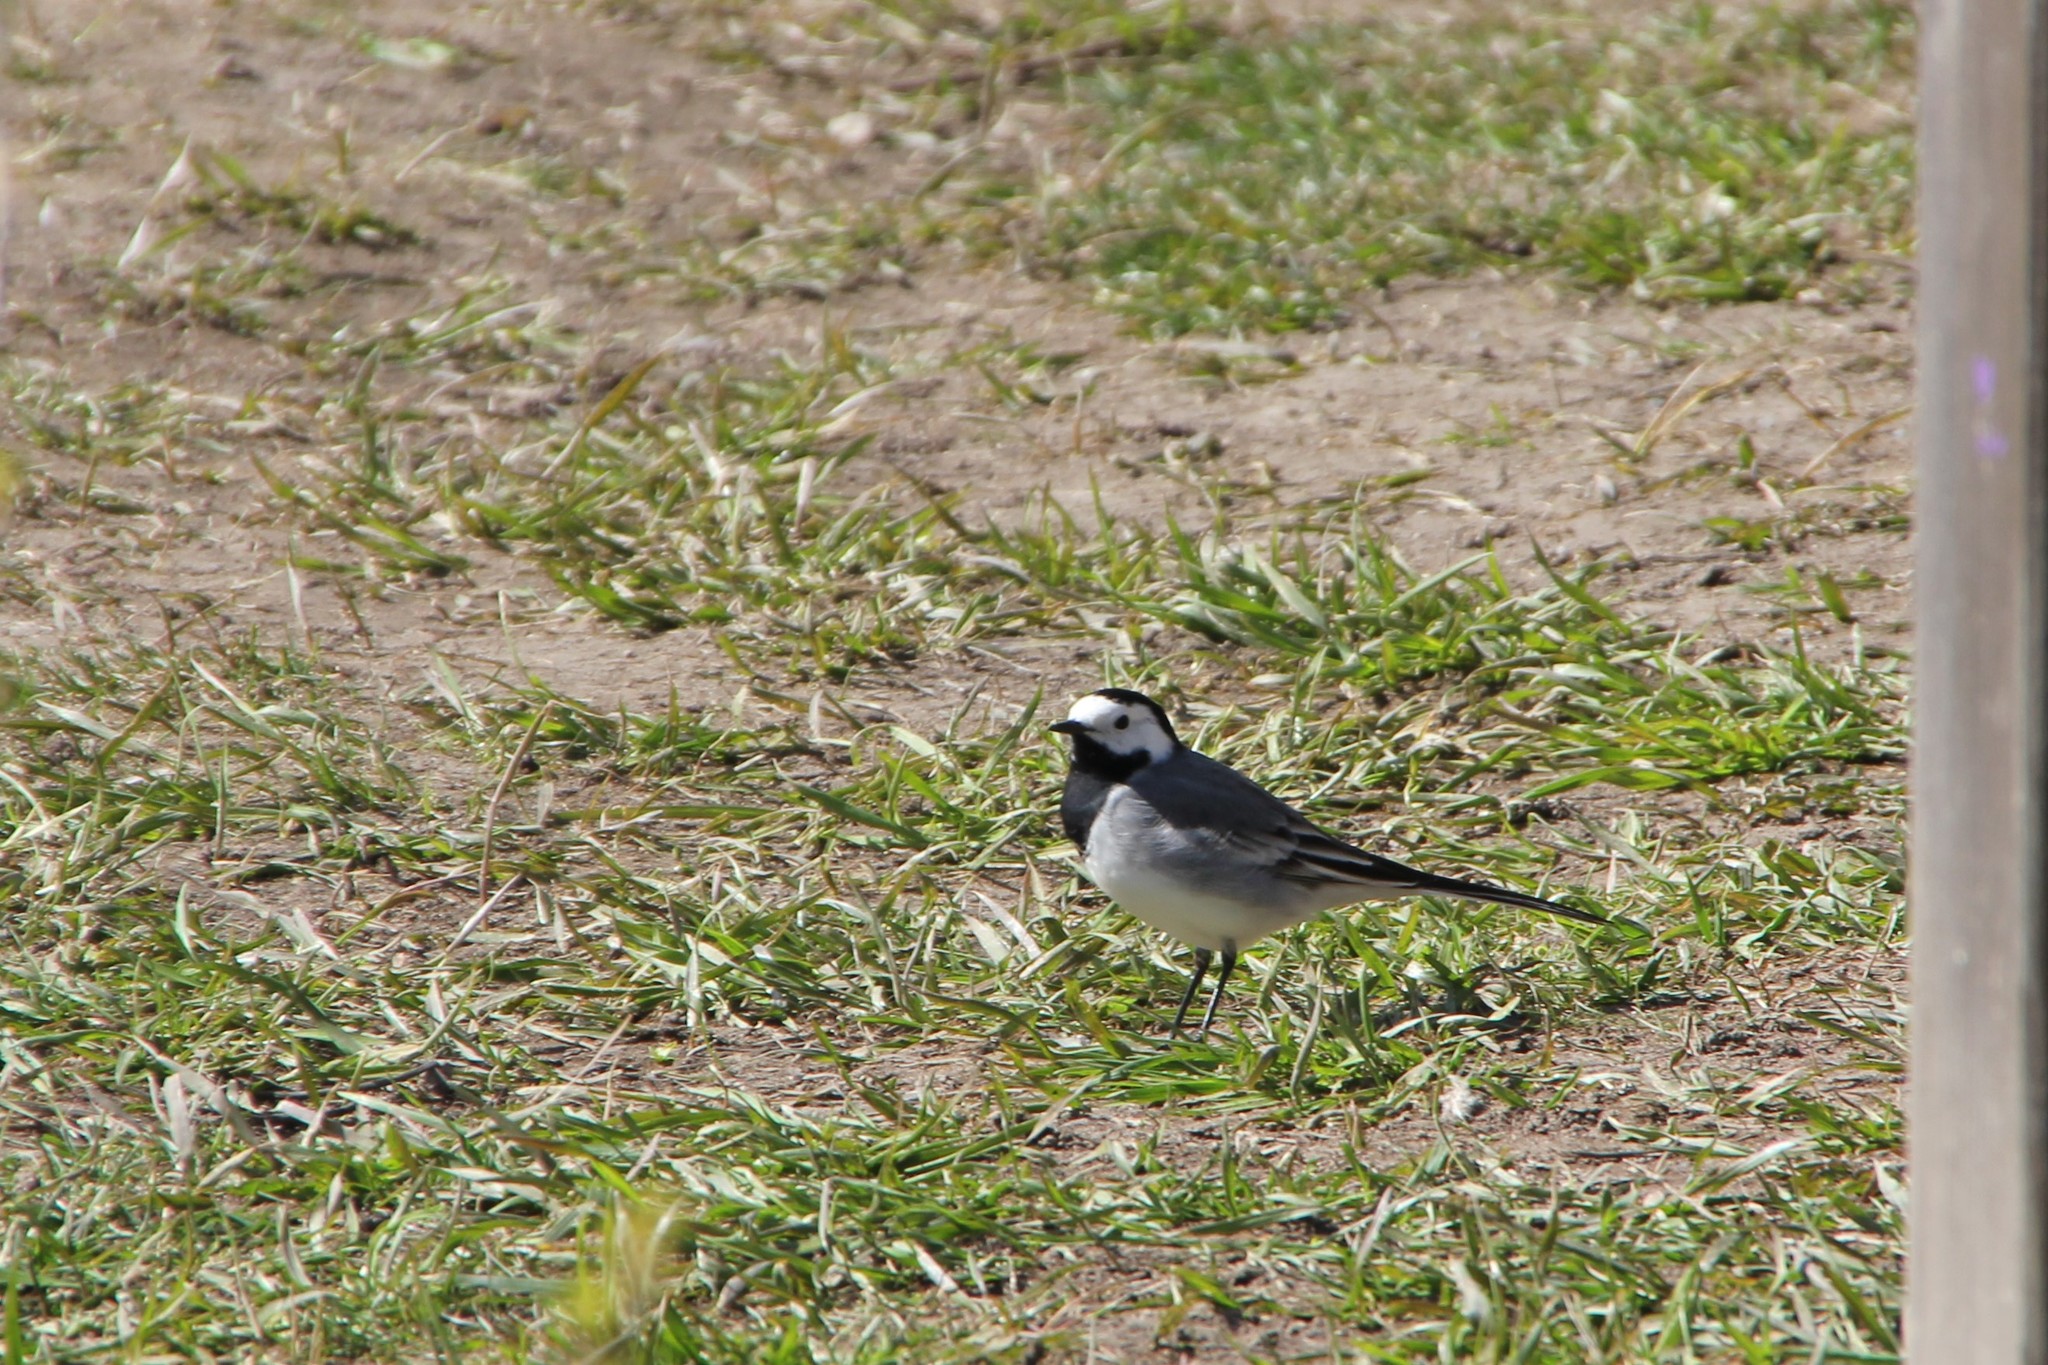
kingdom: Animalia
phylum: Chordata
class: Aves
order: Passeriformes
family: Motacillidae
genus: Motacilla
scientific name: Motacilla alba
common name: White wagtail
